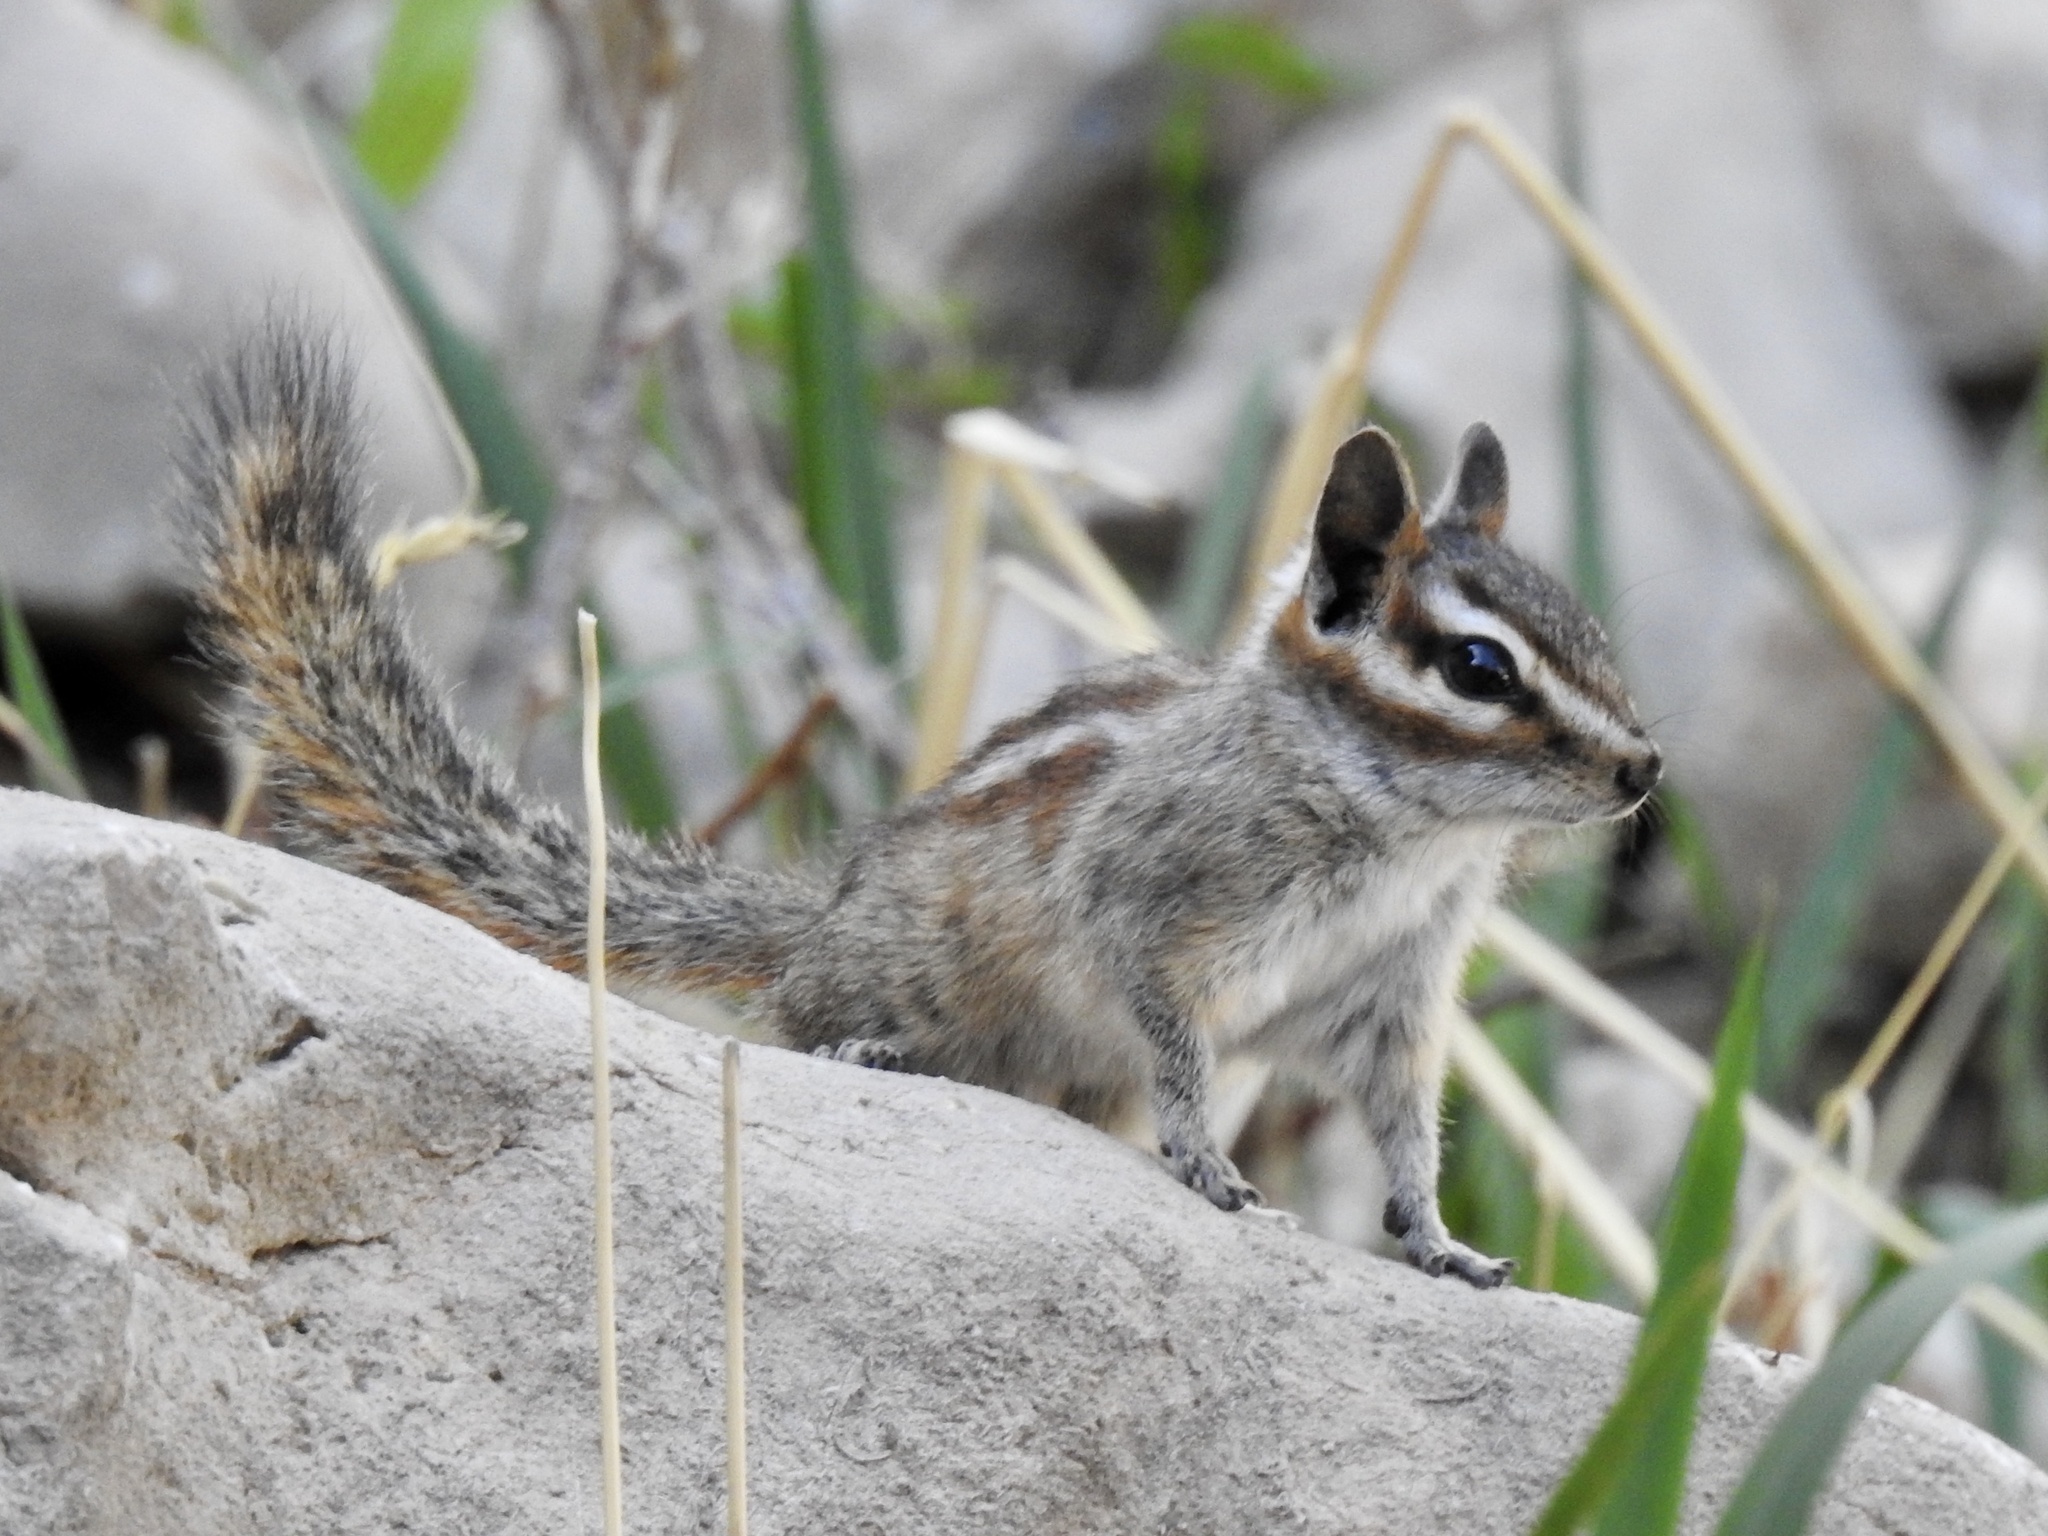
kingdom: Animalia
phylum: Chordata
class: Mammalia
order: Rodentia
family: Sciuridae
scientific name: Sciuridae
